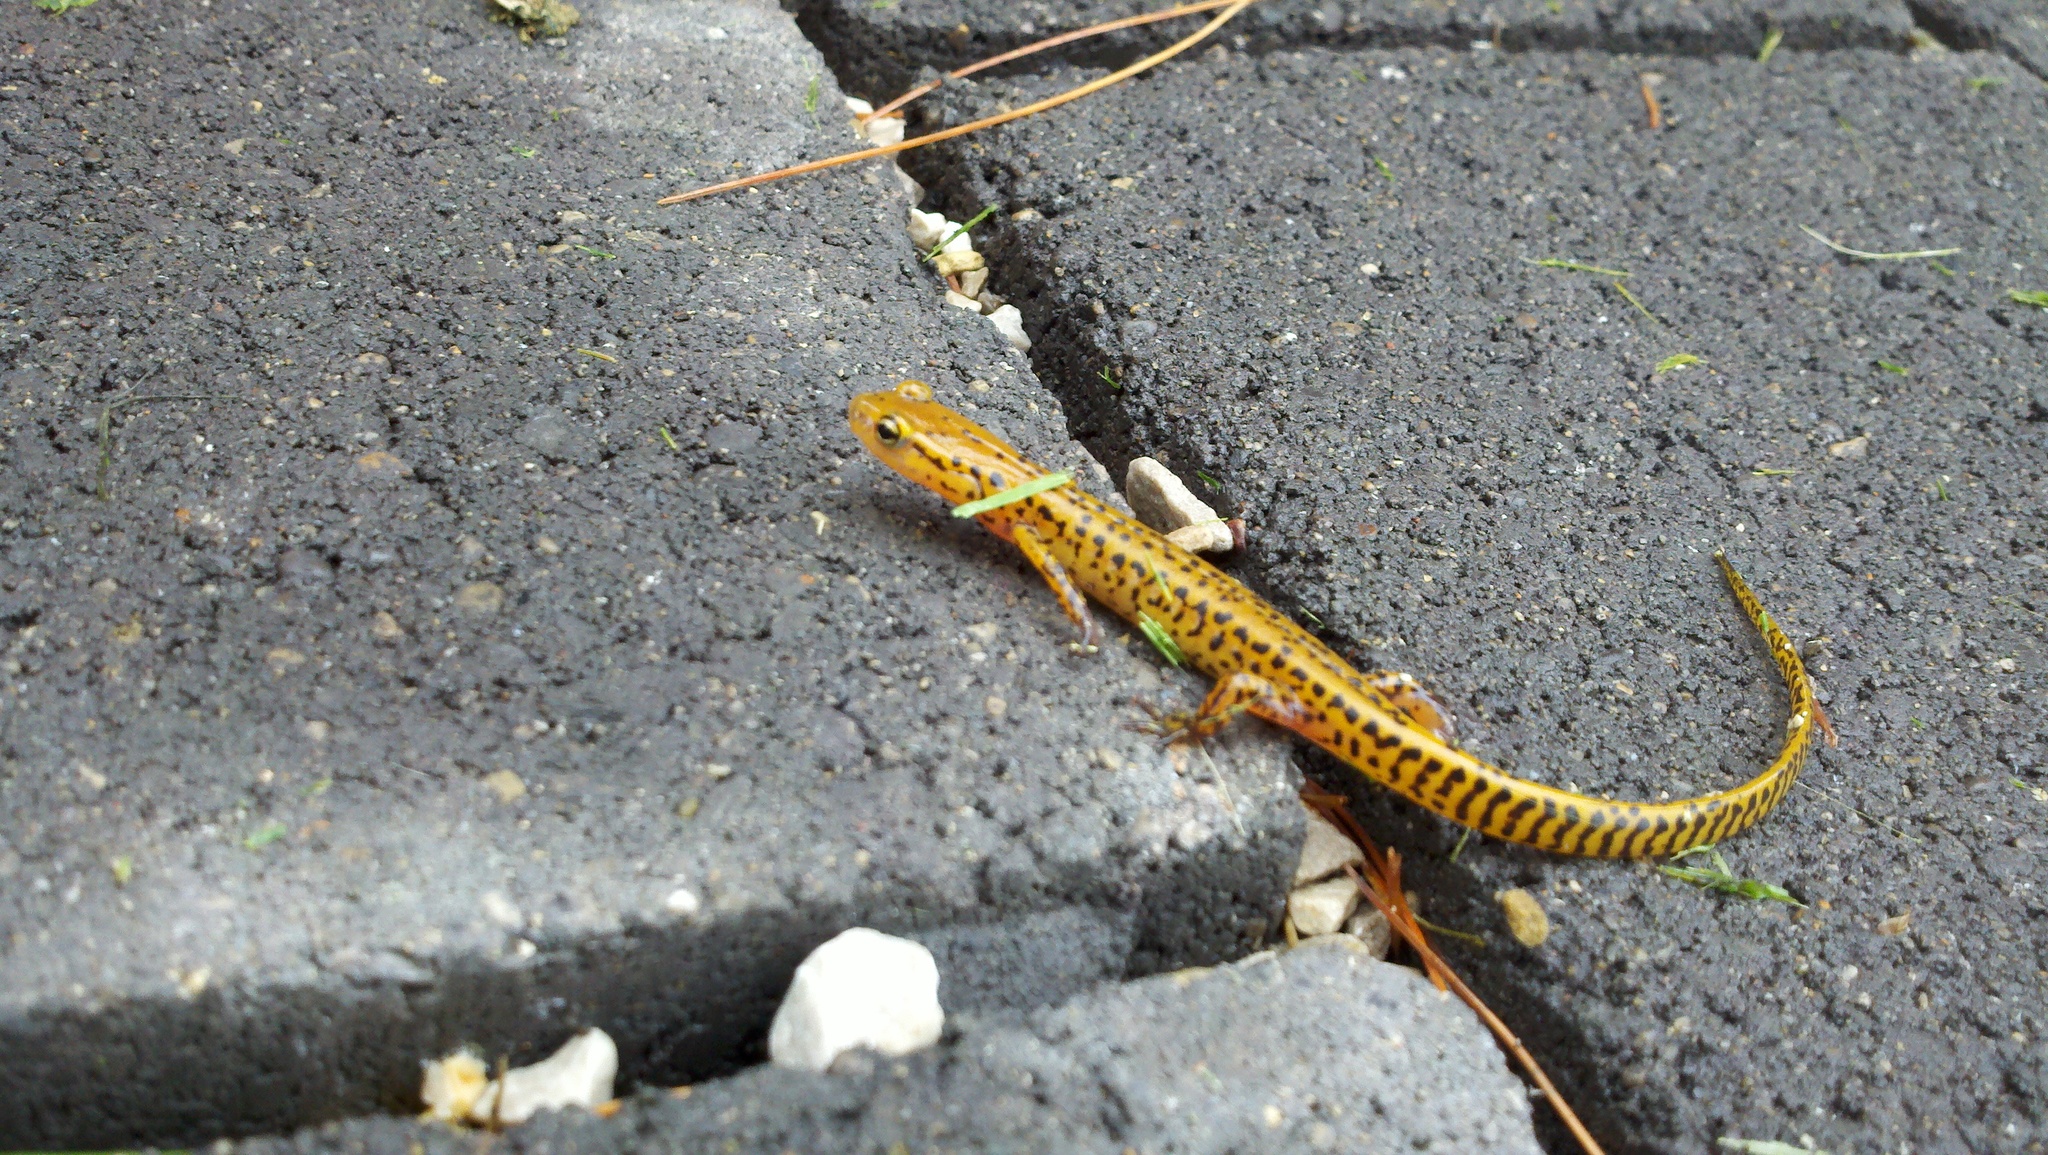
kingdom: Animalia
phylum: Chordata
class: Amphibia
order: Caudata
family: Plethodontidae
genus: Eurycea
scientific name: Eurycea longicauda
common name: Long-tailed salamander
